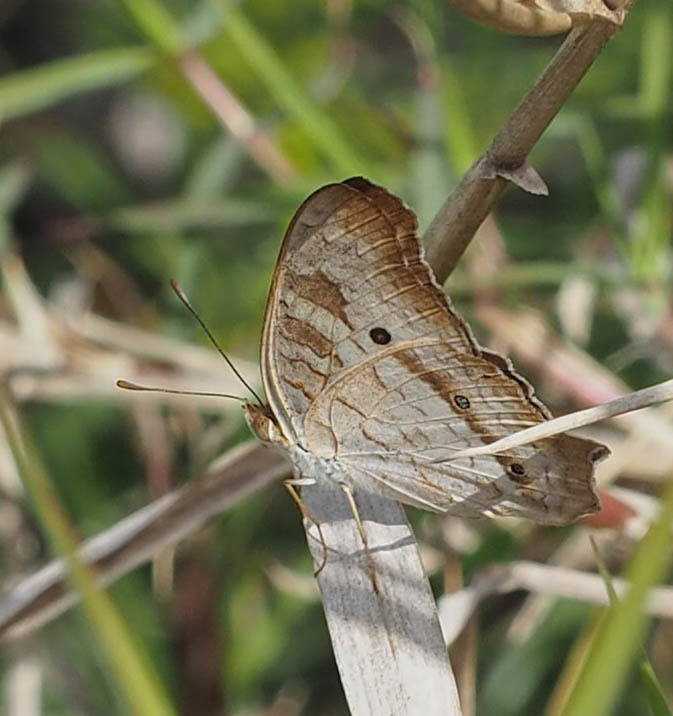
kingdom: Animalia
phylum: Arthropoda
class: Insecta
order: Lepidoptera
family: Nymphalidae
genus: Anartia
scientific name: Anartia jatrophae
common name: White peacock
